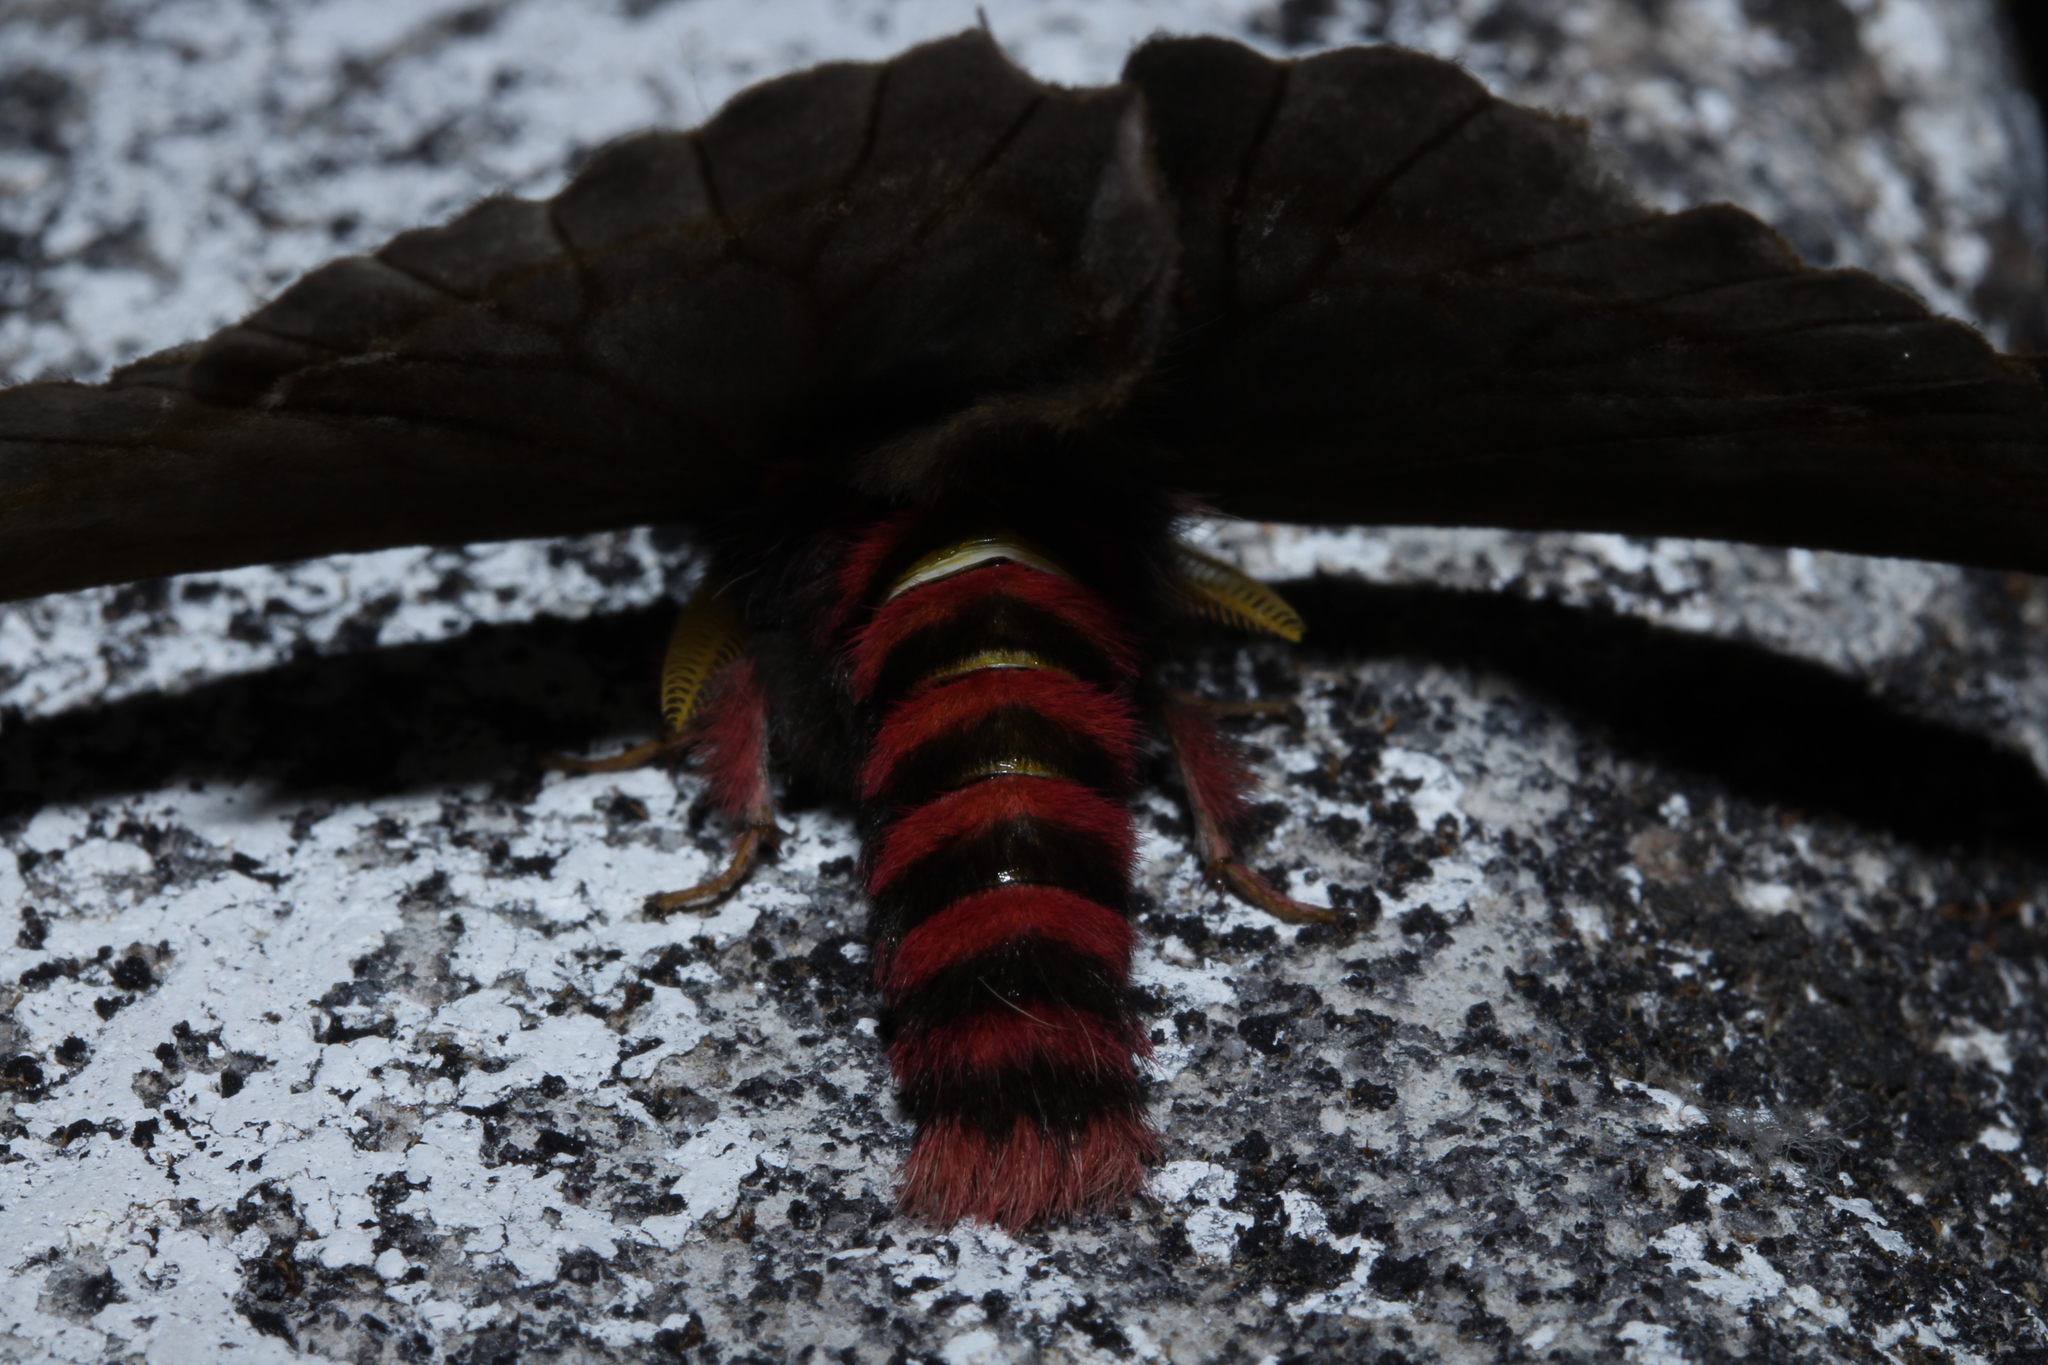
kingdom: Animalia
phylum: Arthropoda
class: Insecta
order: Lepidoptera
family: Saturniidae
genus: Paradirphia
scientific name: Paradirphia
